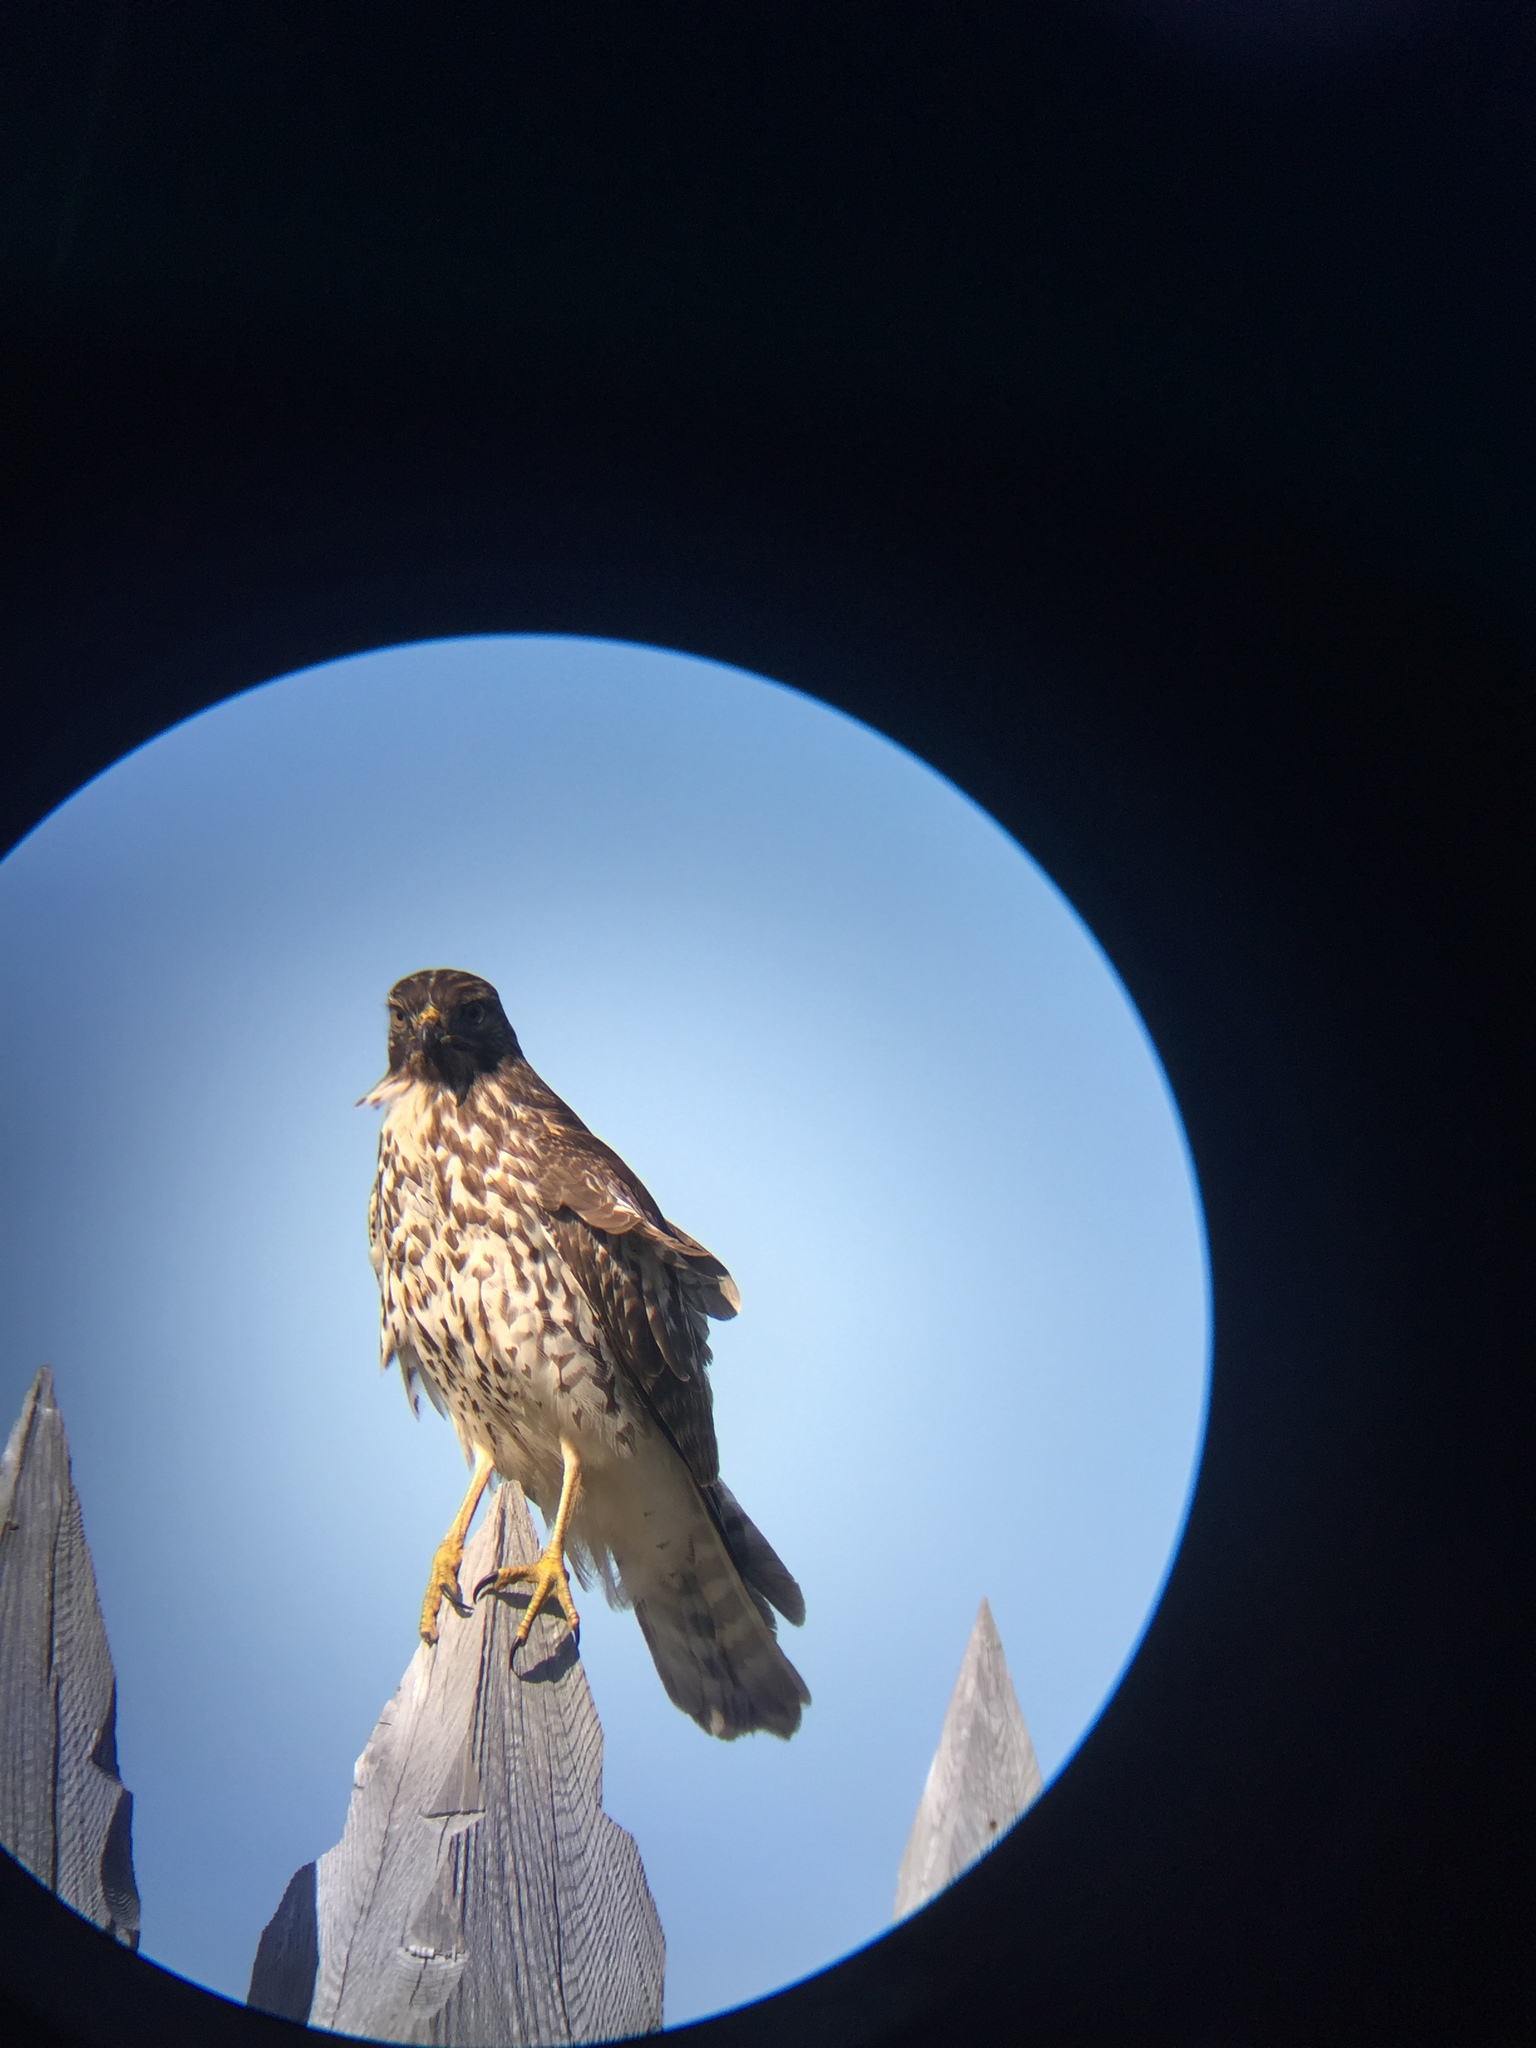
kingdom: Animalia
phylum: Chordata
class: Aves
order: Accipitriformes
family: Accipitridae
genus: Buteo
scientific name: Buteo lineatus
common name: Red-shouldered hawk
